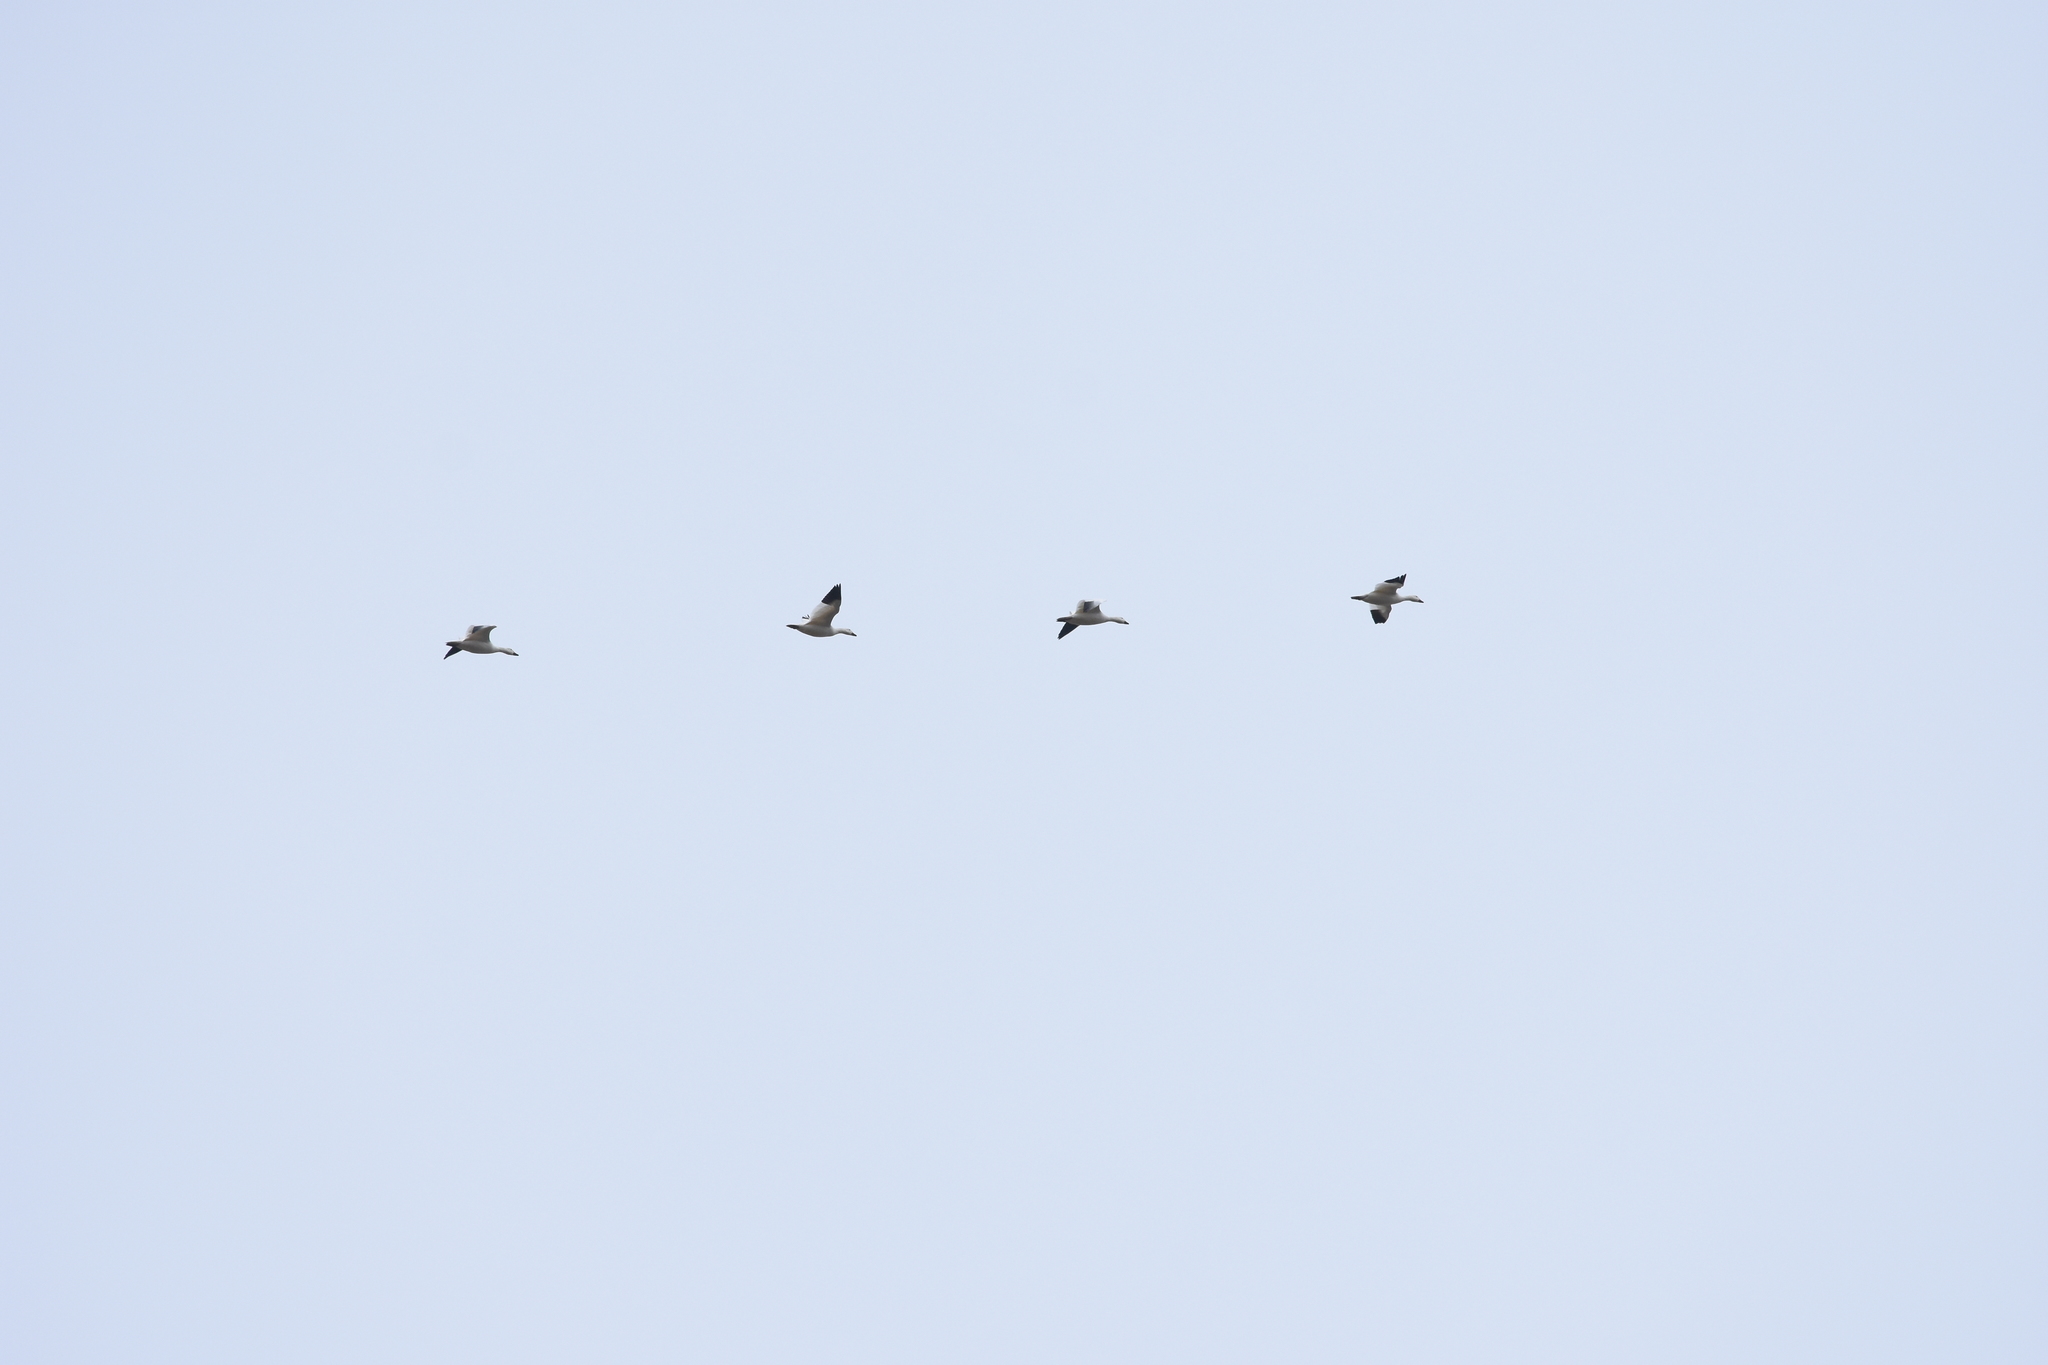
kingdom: Animalia
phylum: Chordata
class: Aves
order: Anseriformes
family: Anatidae
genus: Anser
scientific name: Anser caerulescens
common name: Snow goose
